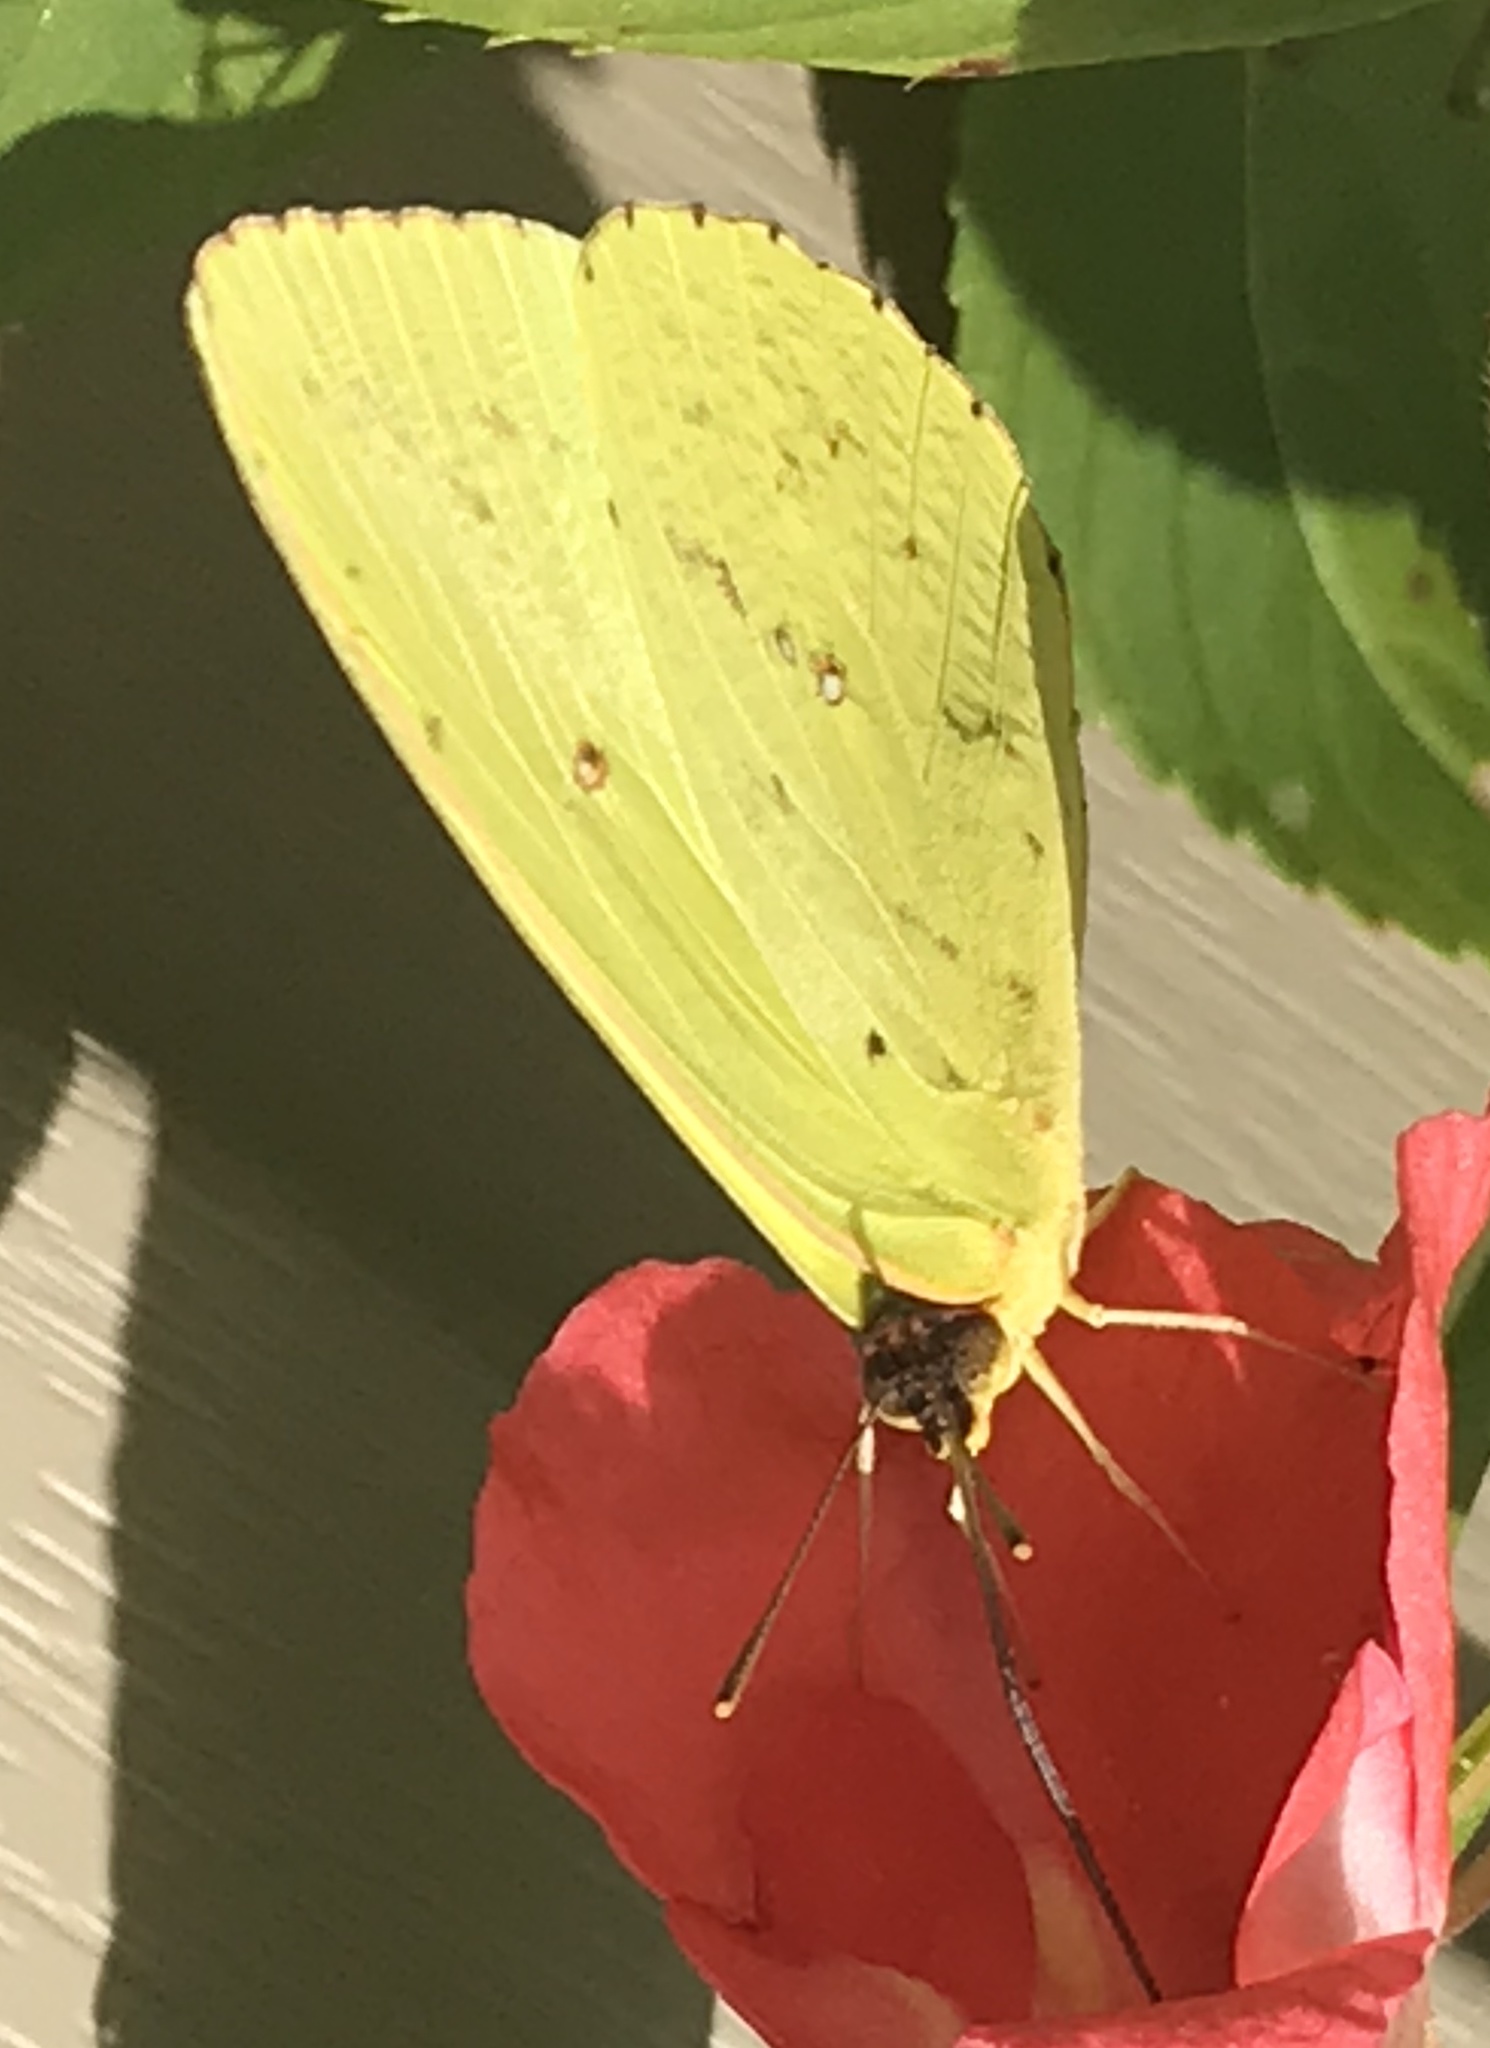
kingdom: Animalia
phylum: Arthropoda
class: Insecta
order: Lepidoptera
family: Pieridae
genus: Phoebis
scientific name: Phoebis sennae
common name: Cloudless sulphur
